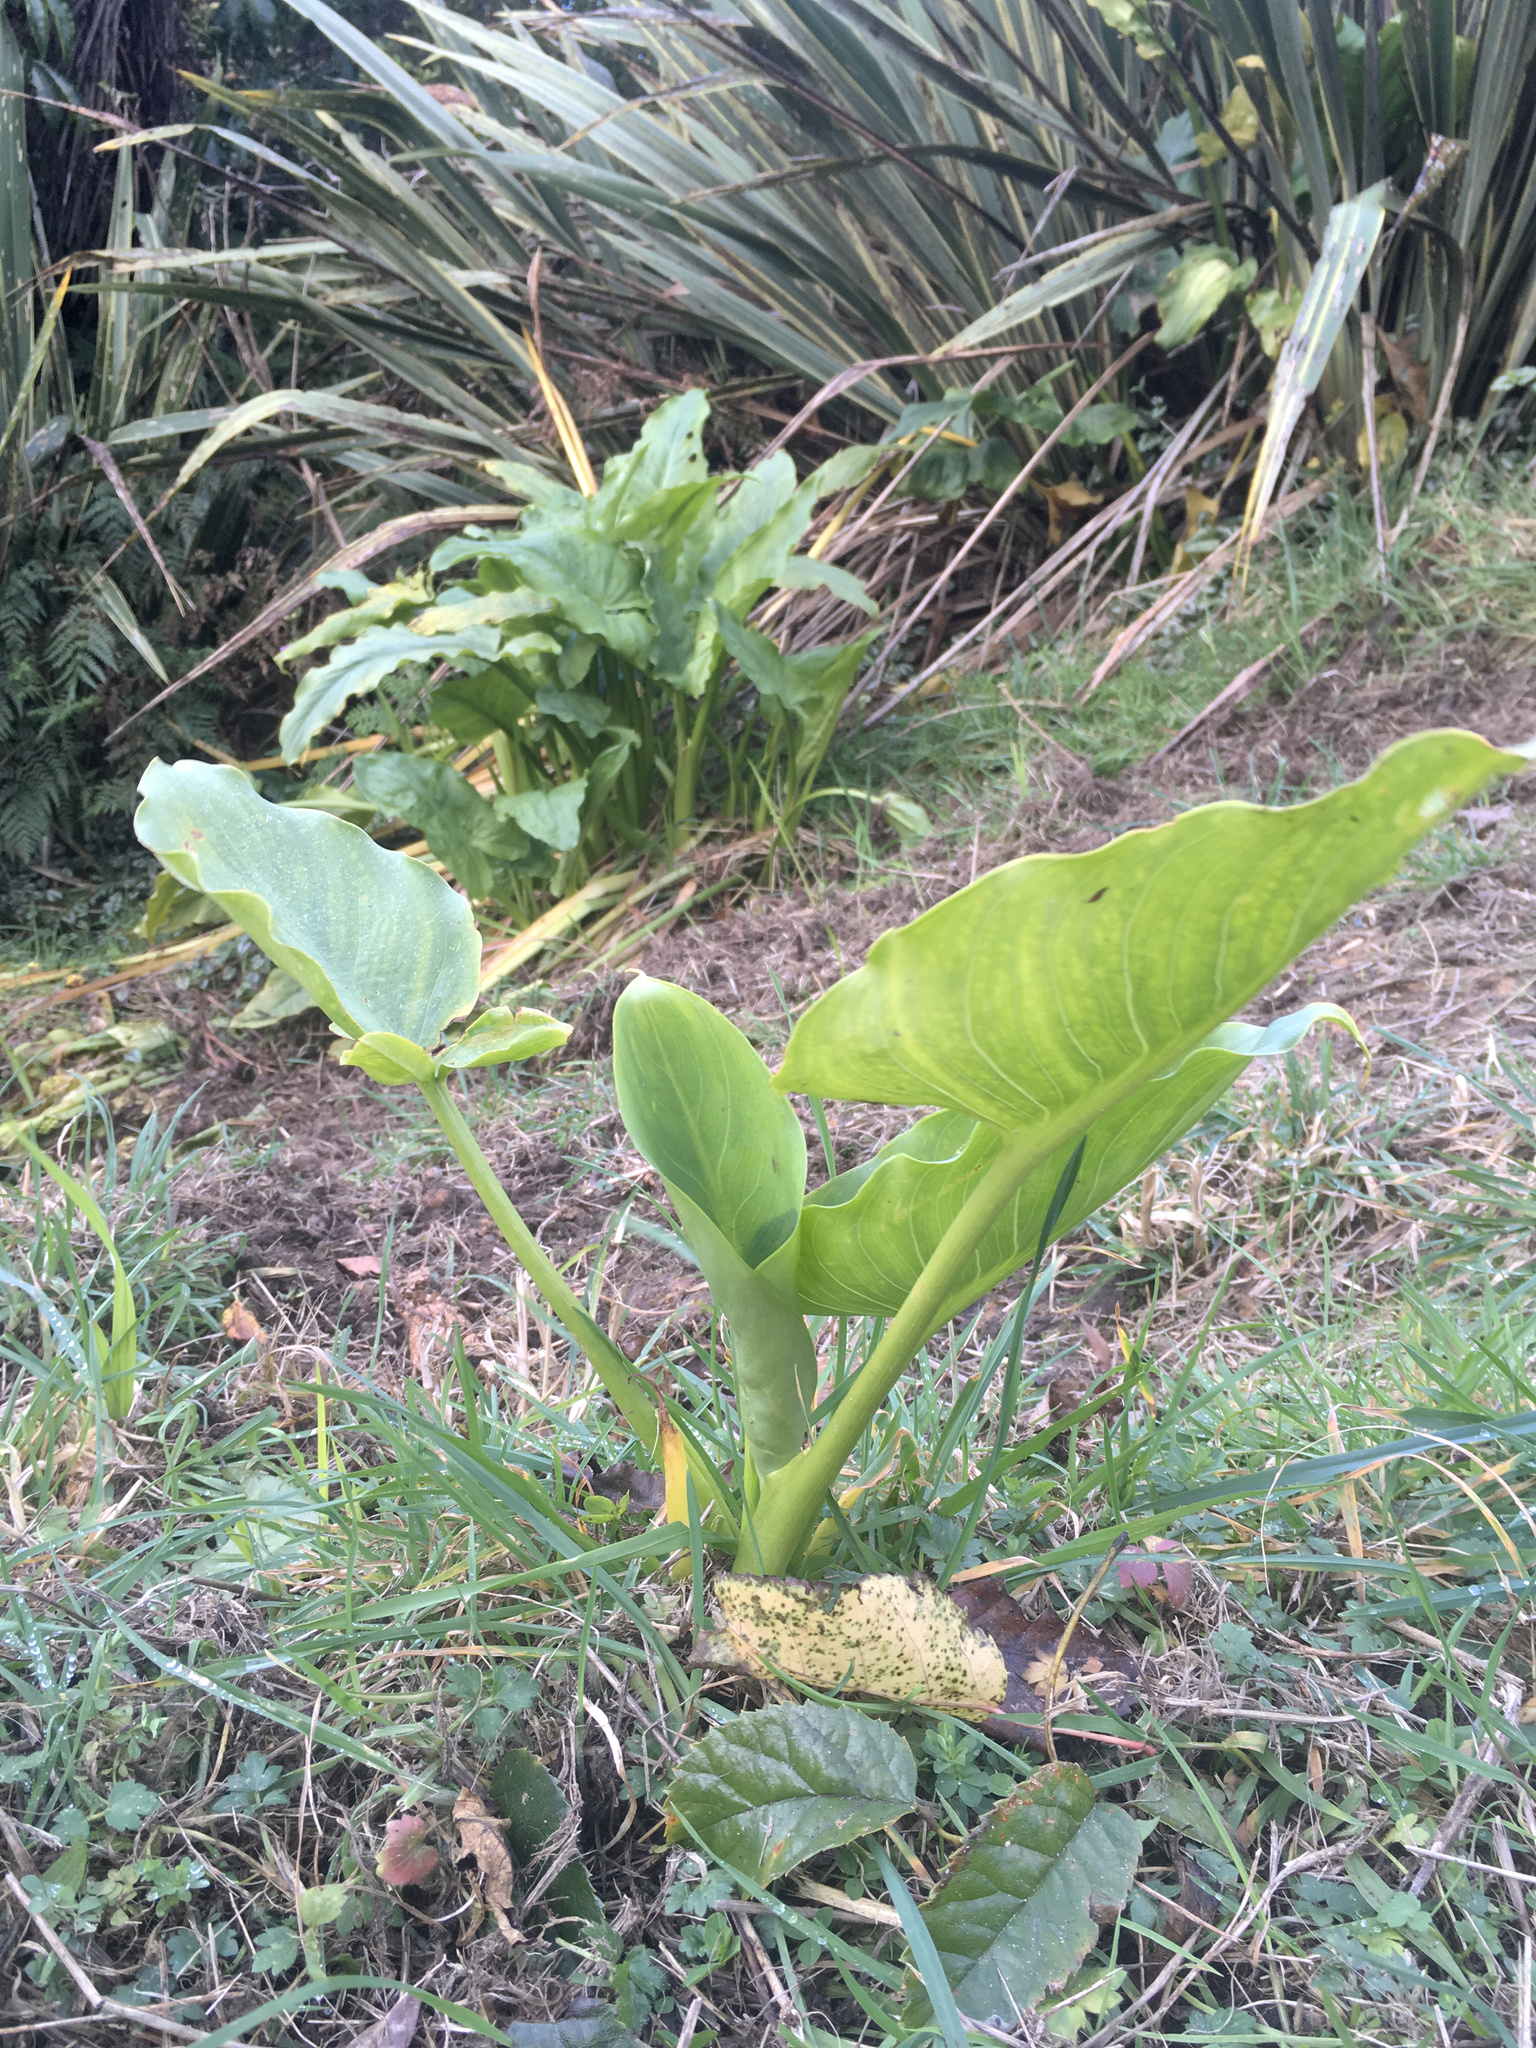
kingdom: Plantae
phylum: Tracheophyta
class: Liliopsida
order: Alismatales
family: Araceae
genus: Zantedeschia
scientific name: Zantedeschia aethiopica
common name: Altar-lily
